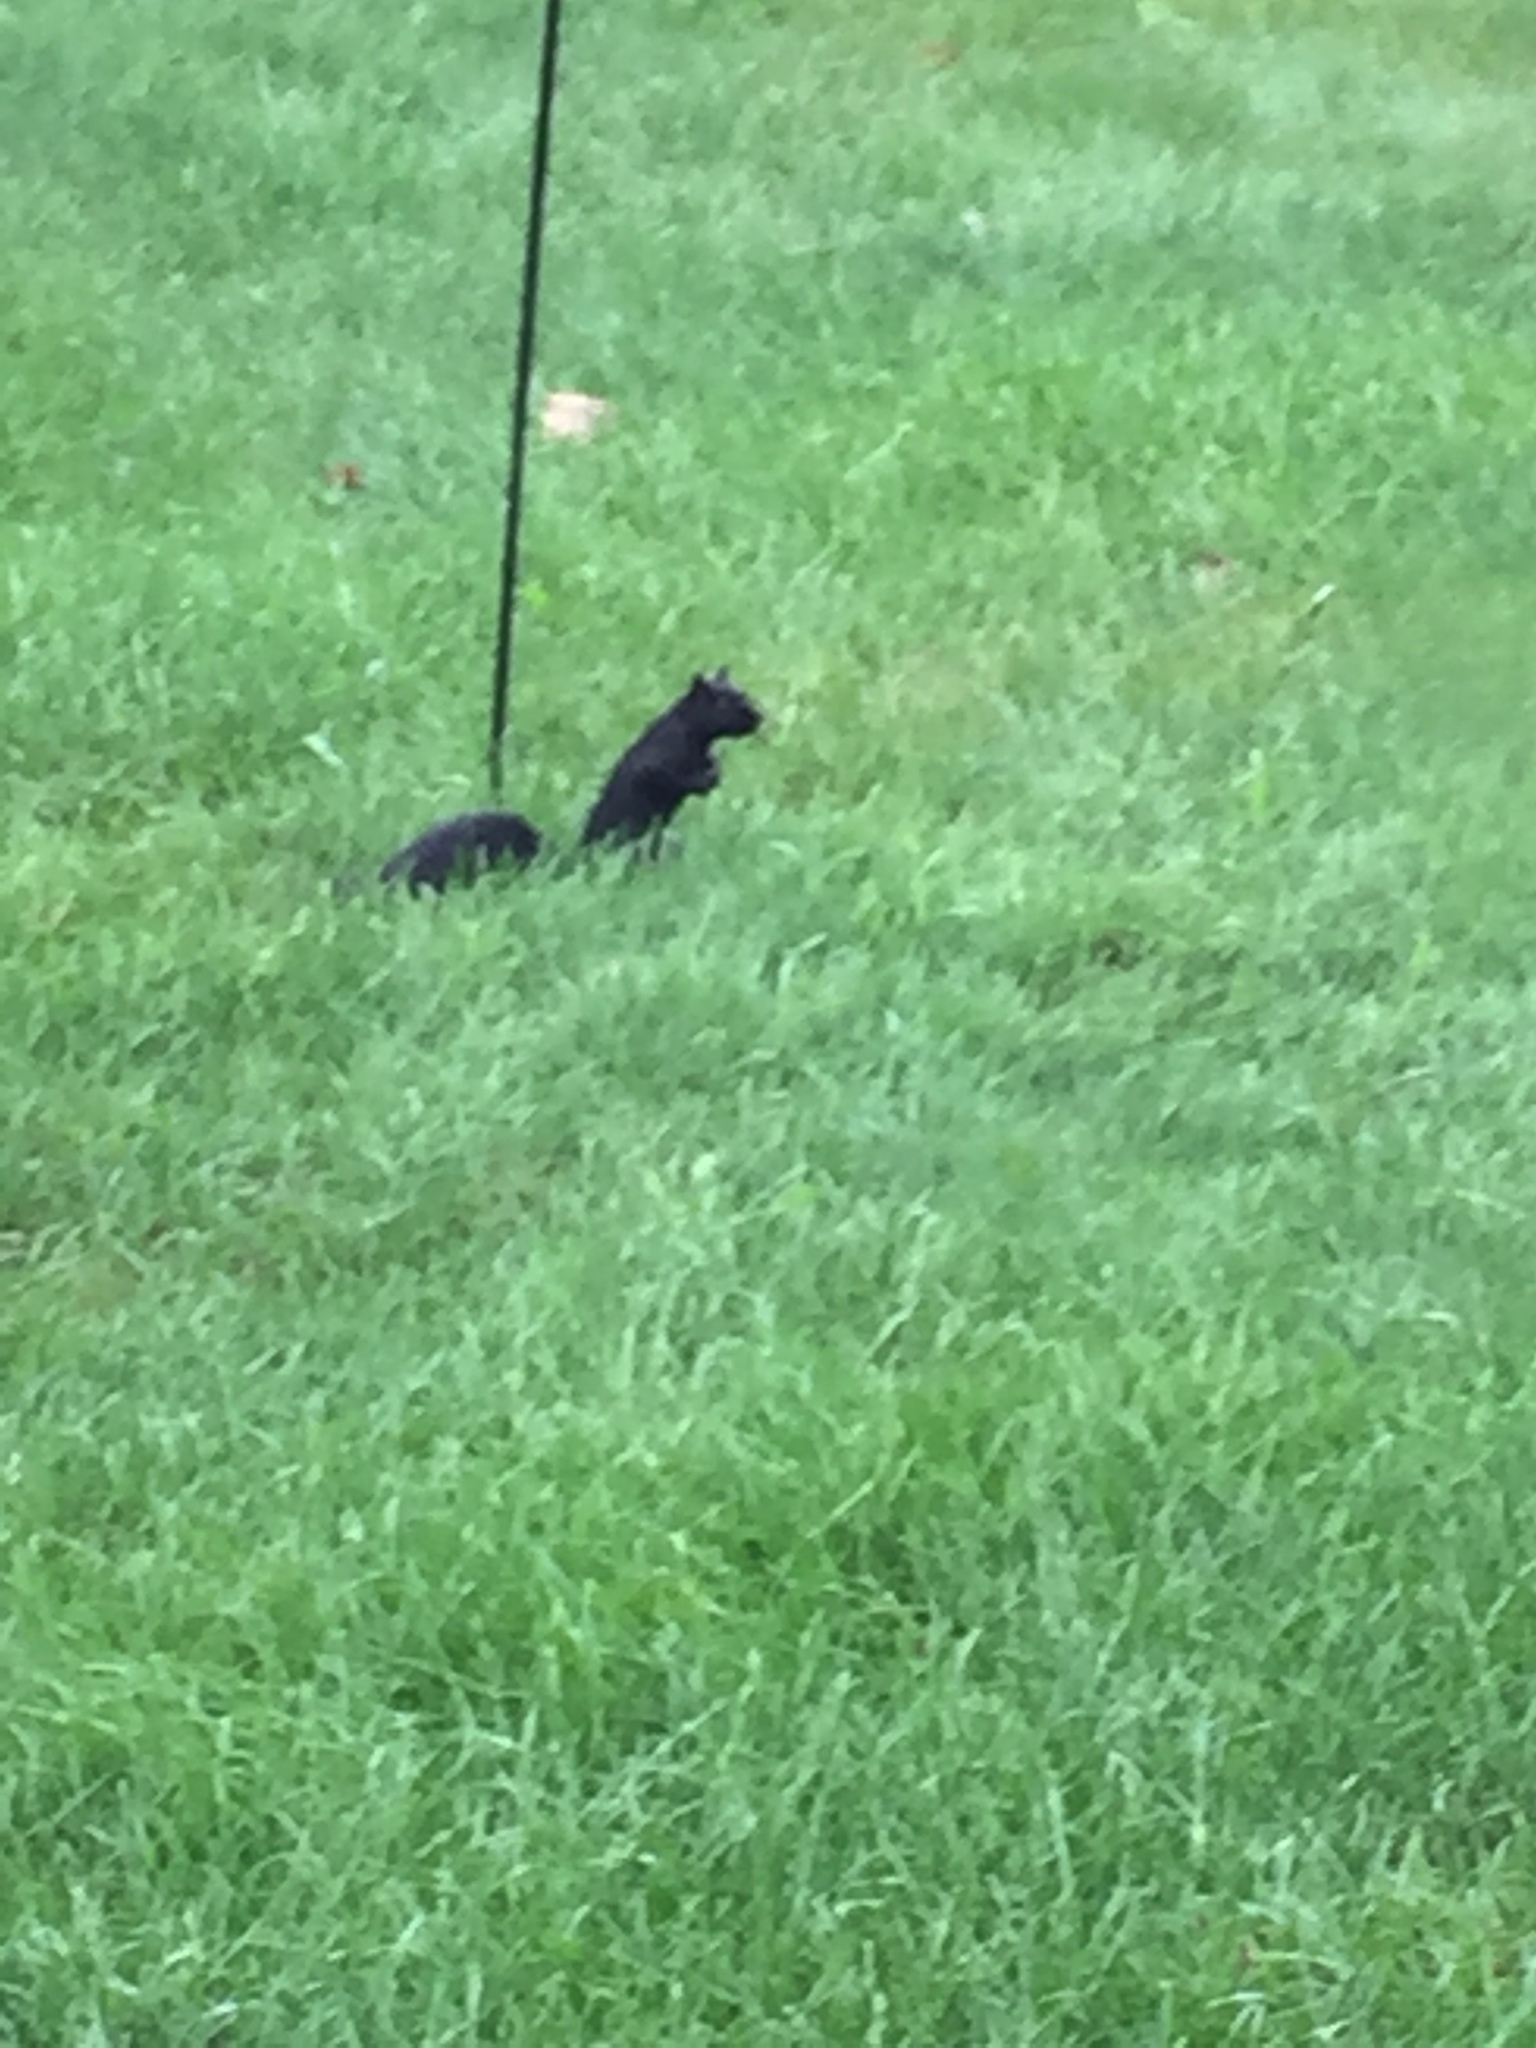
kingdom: Animalia
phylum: Chordata
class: Mammalia
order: Rodentia
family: Sciuridae
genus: Sciurus
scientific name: Sciurus carolinensis
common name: Eastern gray squirrel
